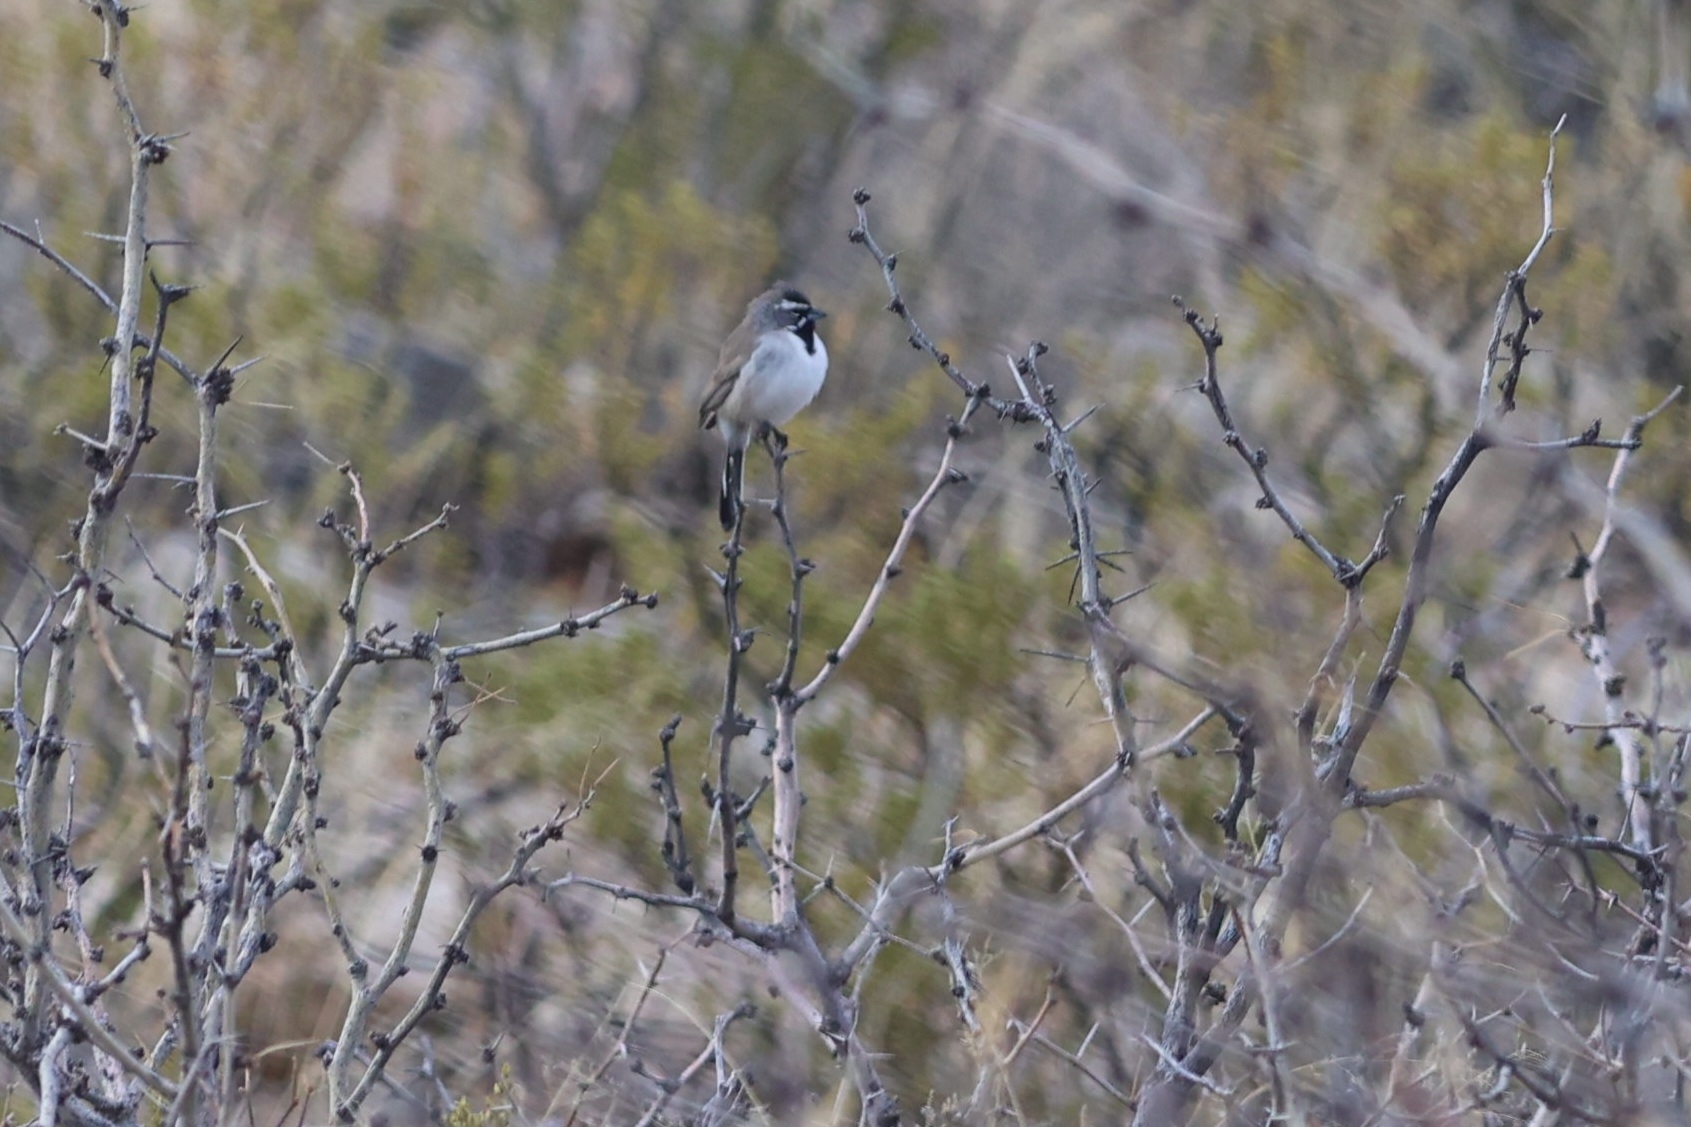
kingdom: Animalia
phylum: Chordata
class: Aves
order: Passeriformes
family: Passerellidae
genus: Amphispiza
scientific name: Amphispiza bilineata
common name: Black-throated sparrow
